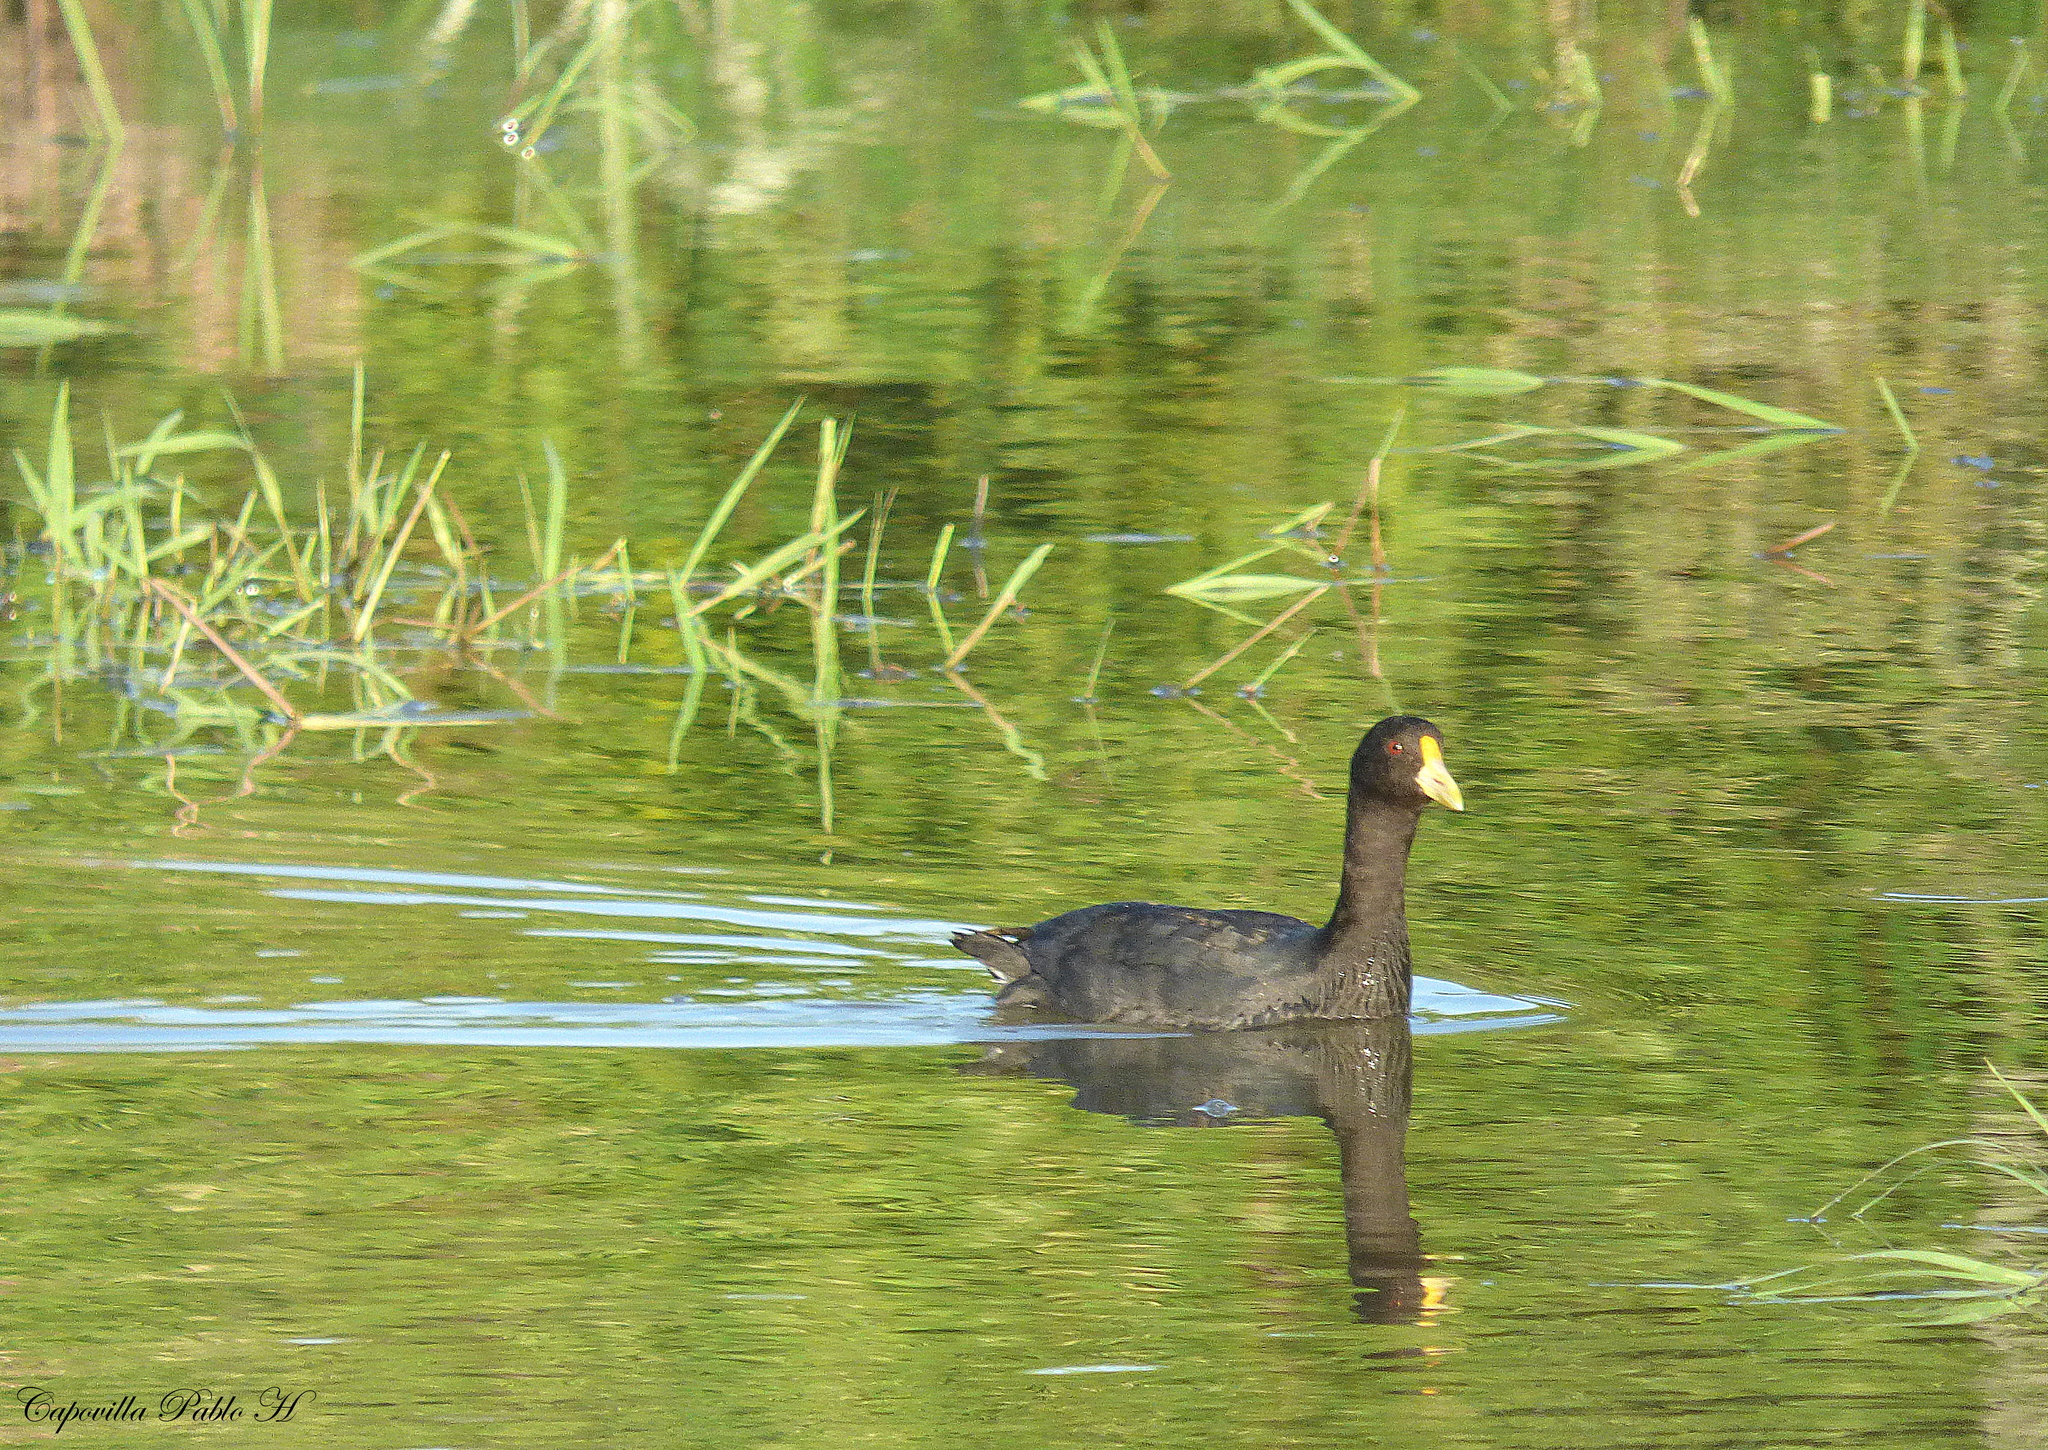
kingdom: Animalia
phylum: Chordata
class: Aves
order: Gruiformes
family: Rallidae
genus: Fulica
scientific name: Fulica leucoptera
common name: White-winged coot
